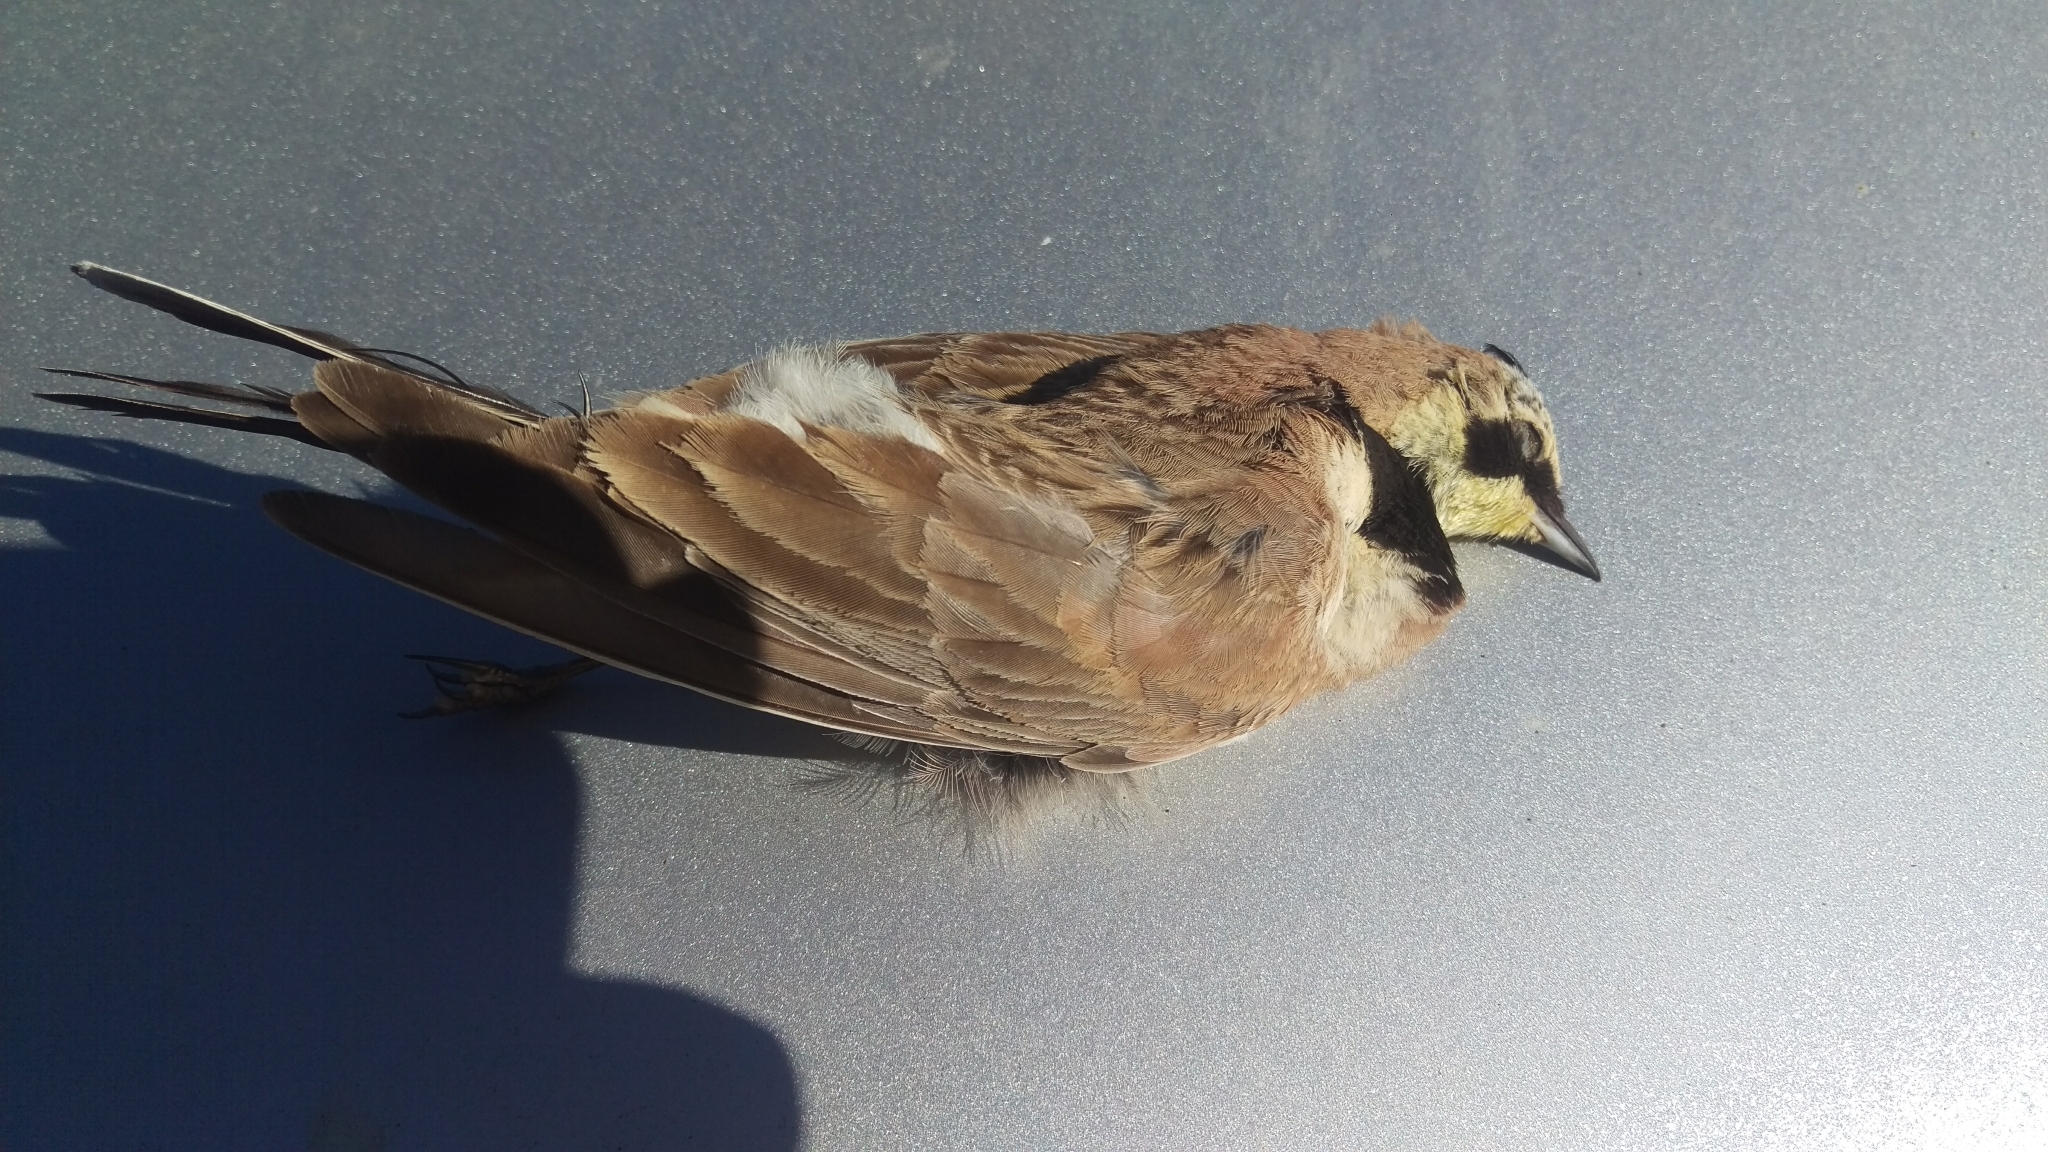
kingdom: Animalia
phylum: Chordata
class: Aves
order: Passeriformes
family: Alaudidae
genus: Eremophila
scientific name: Eremophila alpestris
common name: Horned lark
